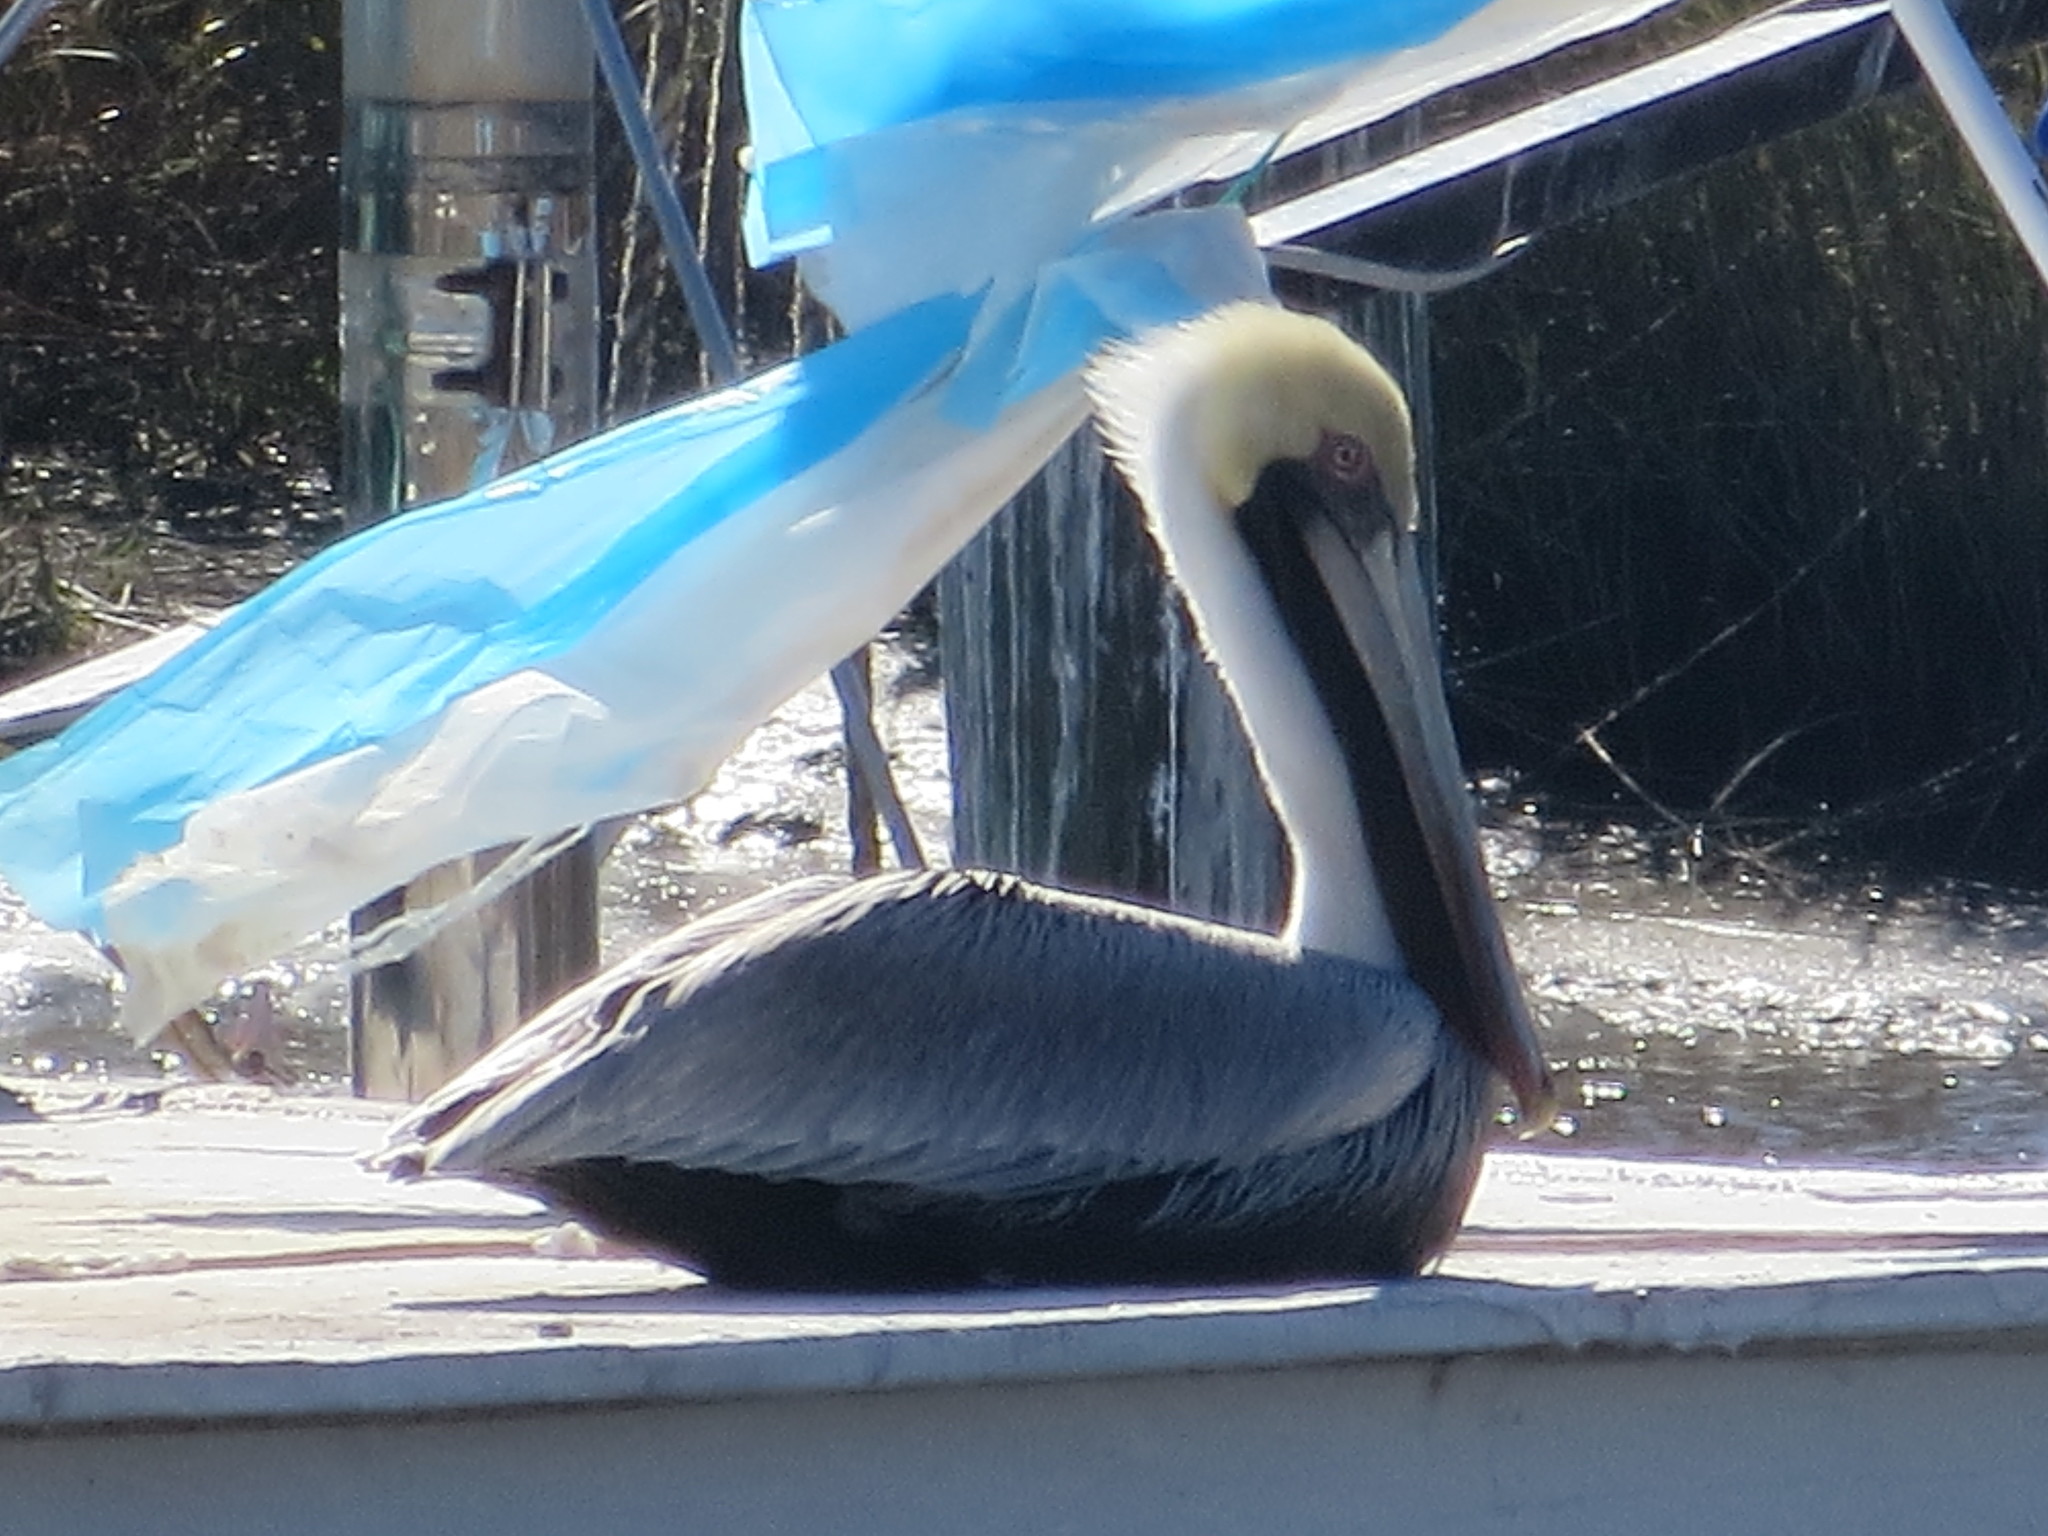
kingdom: Animalia
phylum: Chordata
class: Aves
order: Pelecaniformes
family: Pelecanidae
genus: Pelecanus
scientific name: Pelecanus occidentalis
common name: Brown pelican
